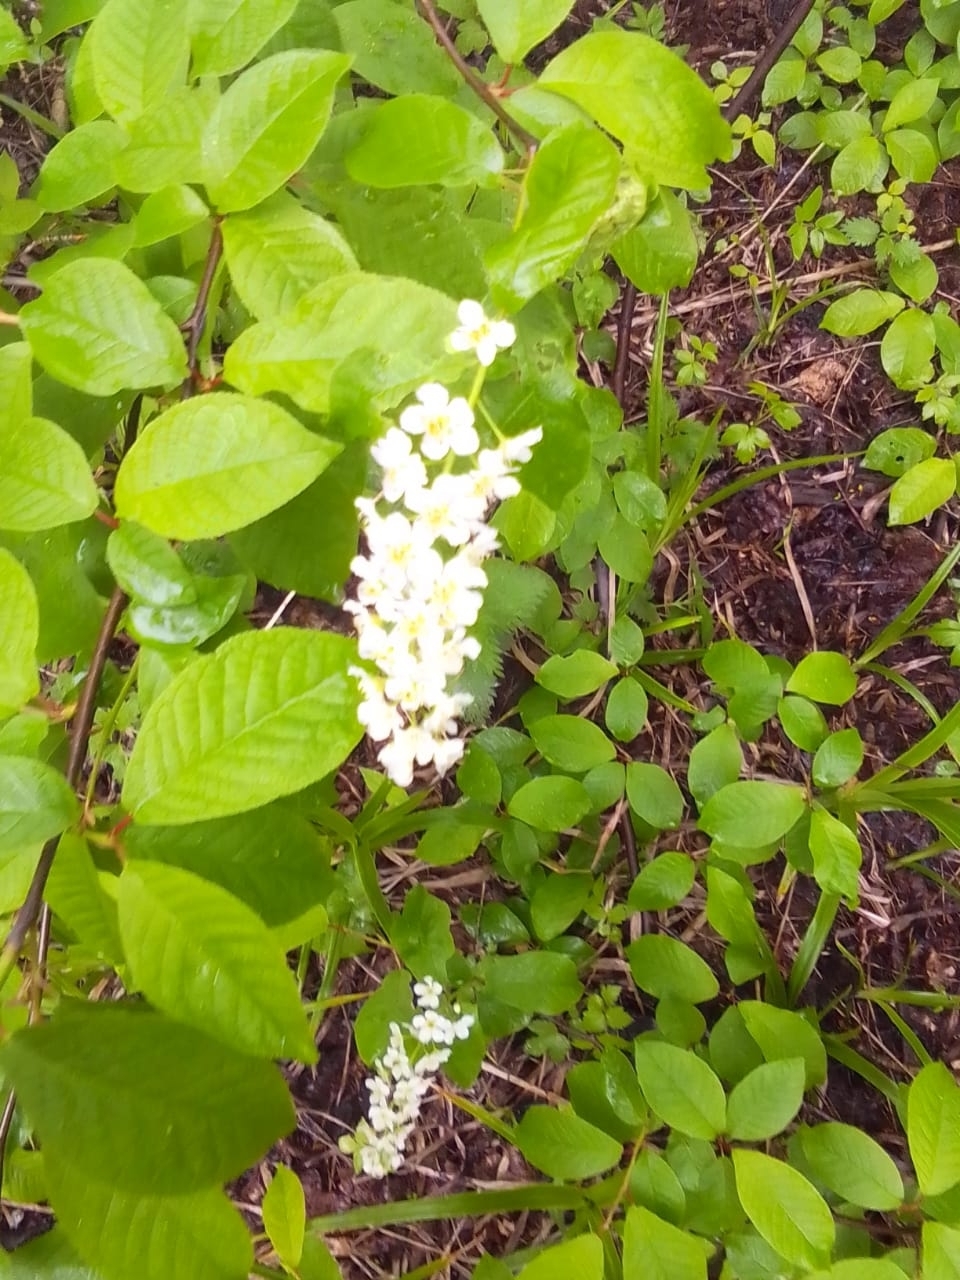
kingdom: Plantae
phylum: Tracheophyta
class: Magnoliopsida
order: Rosales
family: Rosaceae
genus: Prunus
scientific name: Prunus padus
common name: Bird cherry
